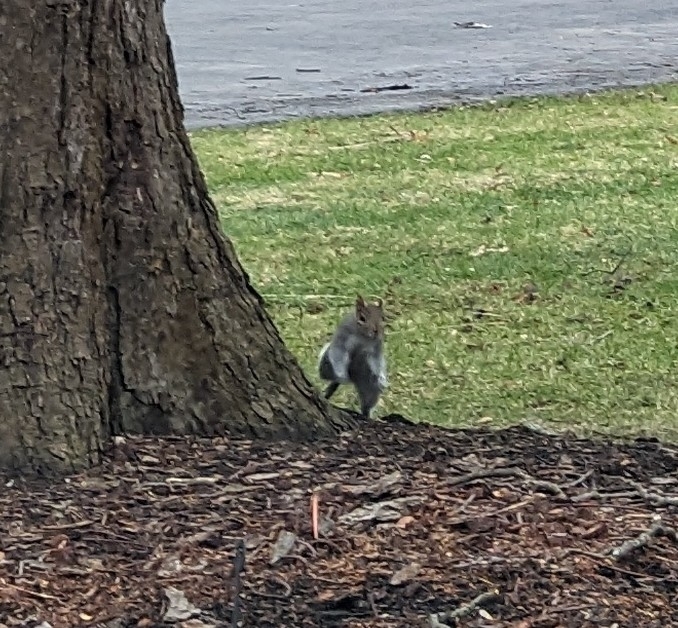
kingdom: Animalia
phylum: Chordata
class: Mammalia
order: Rodentia
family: Sciuridae
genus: Sciurus
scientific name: Sciurus carolinensis
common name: Eastern gray squirrel
